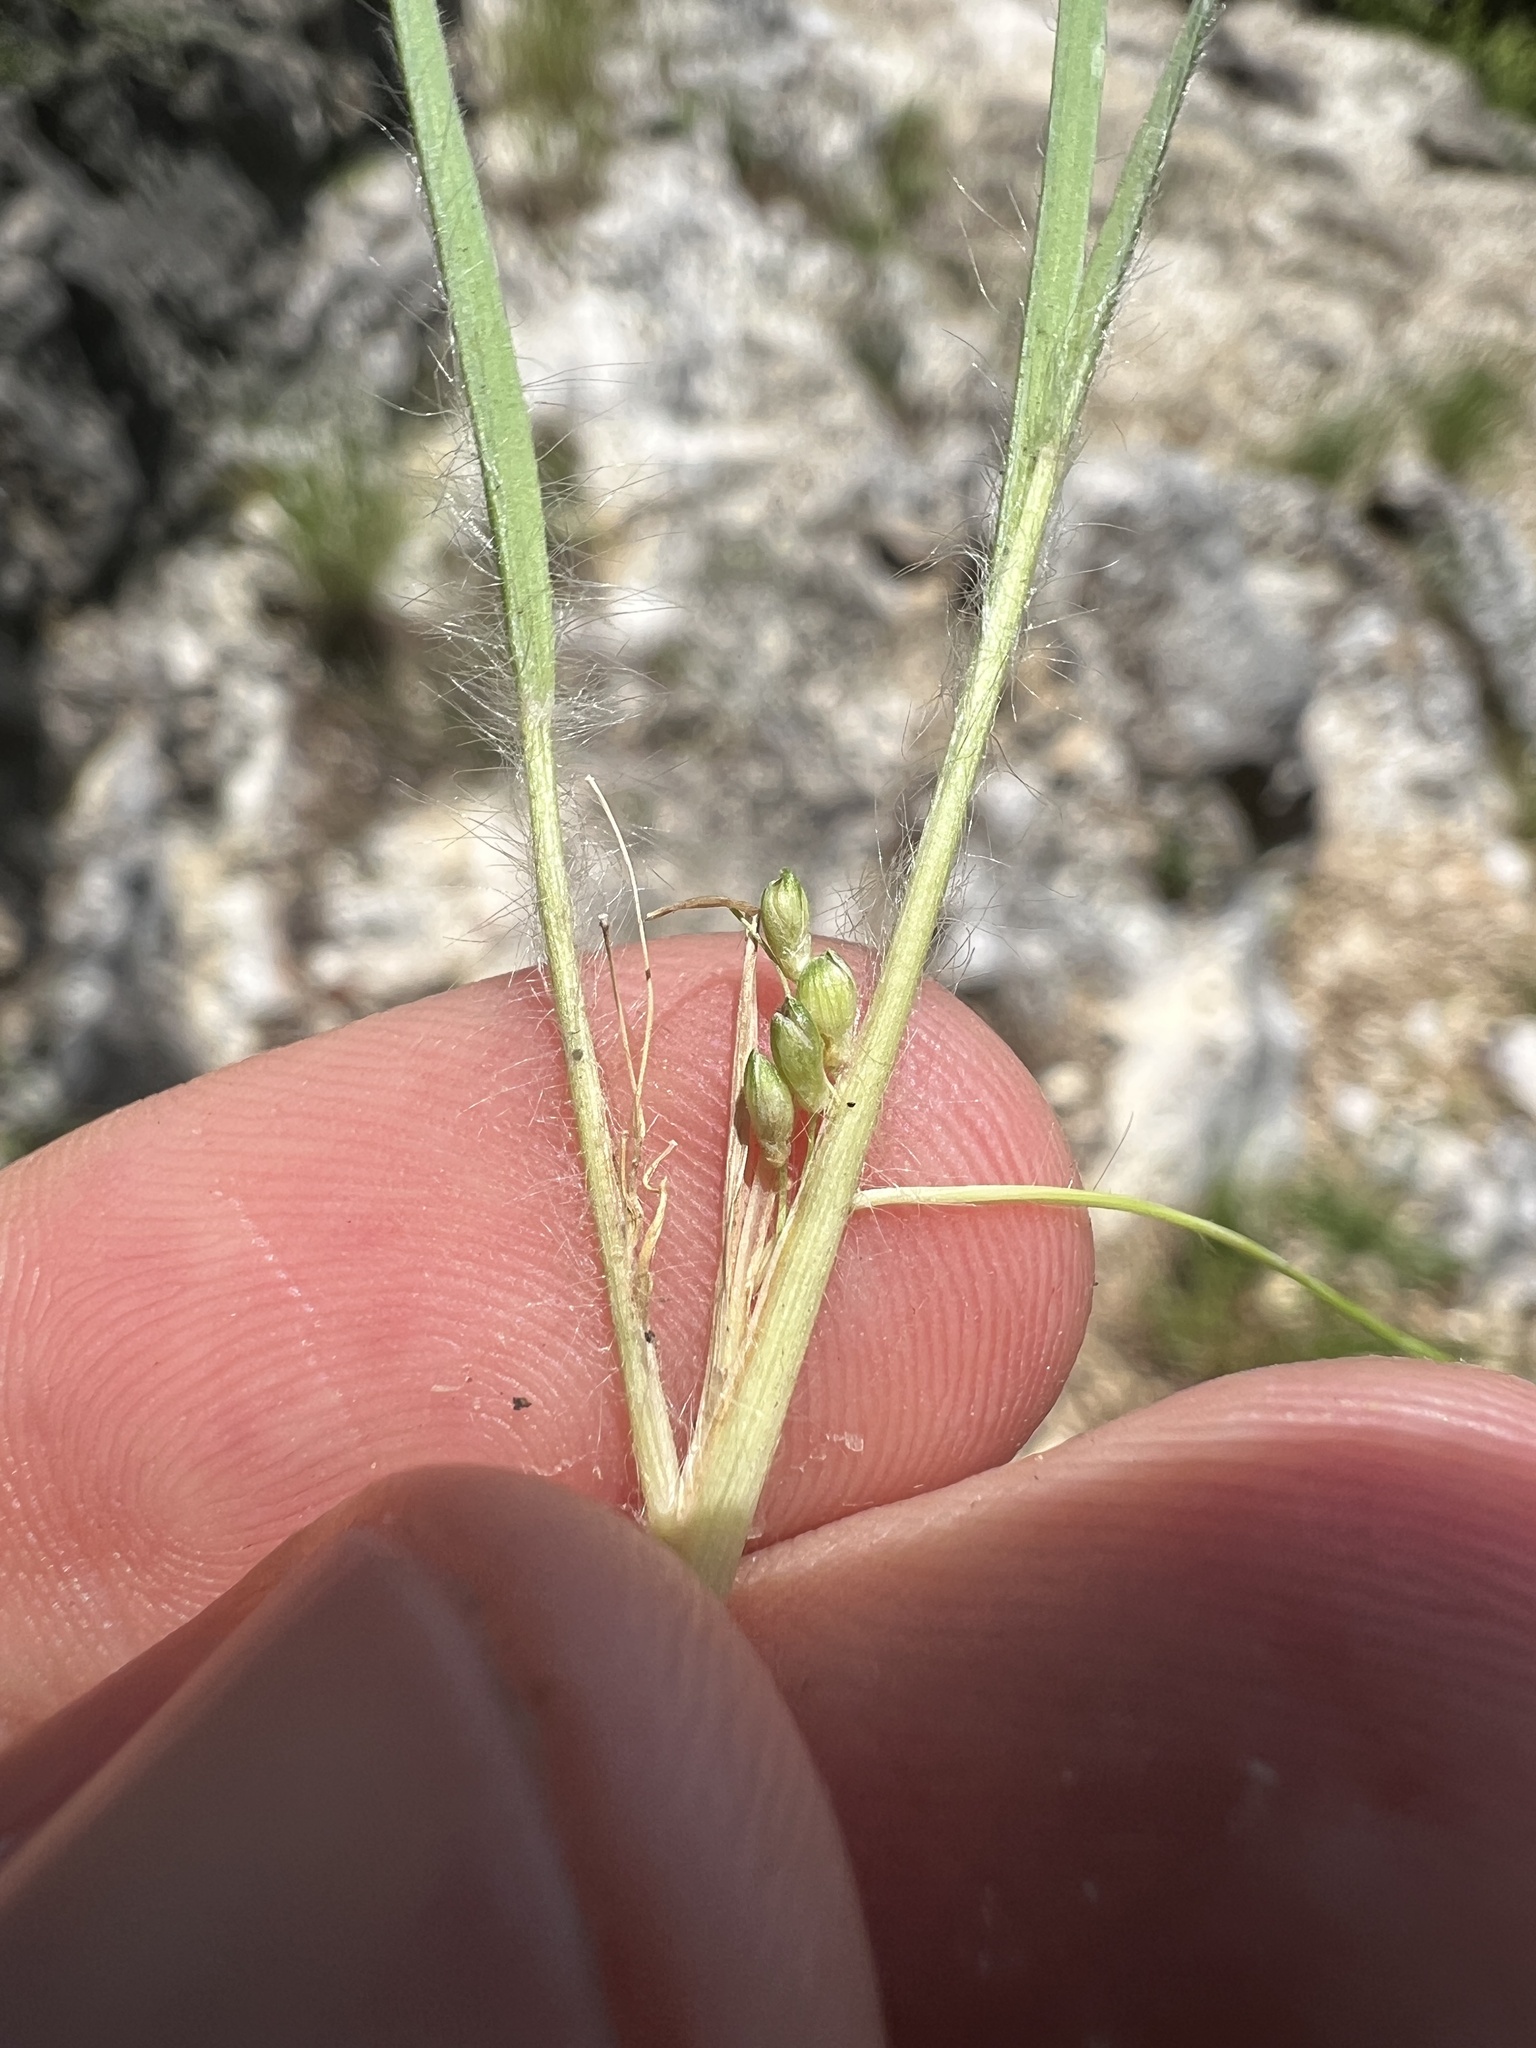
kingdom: Plantae
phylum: Tracheophyta
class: Liliopsida
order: Poales
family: Poaceae
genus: Dichanthelium
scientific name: Dichanthelium linearifolium
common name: Linear-leaved panicgrass
